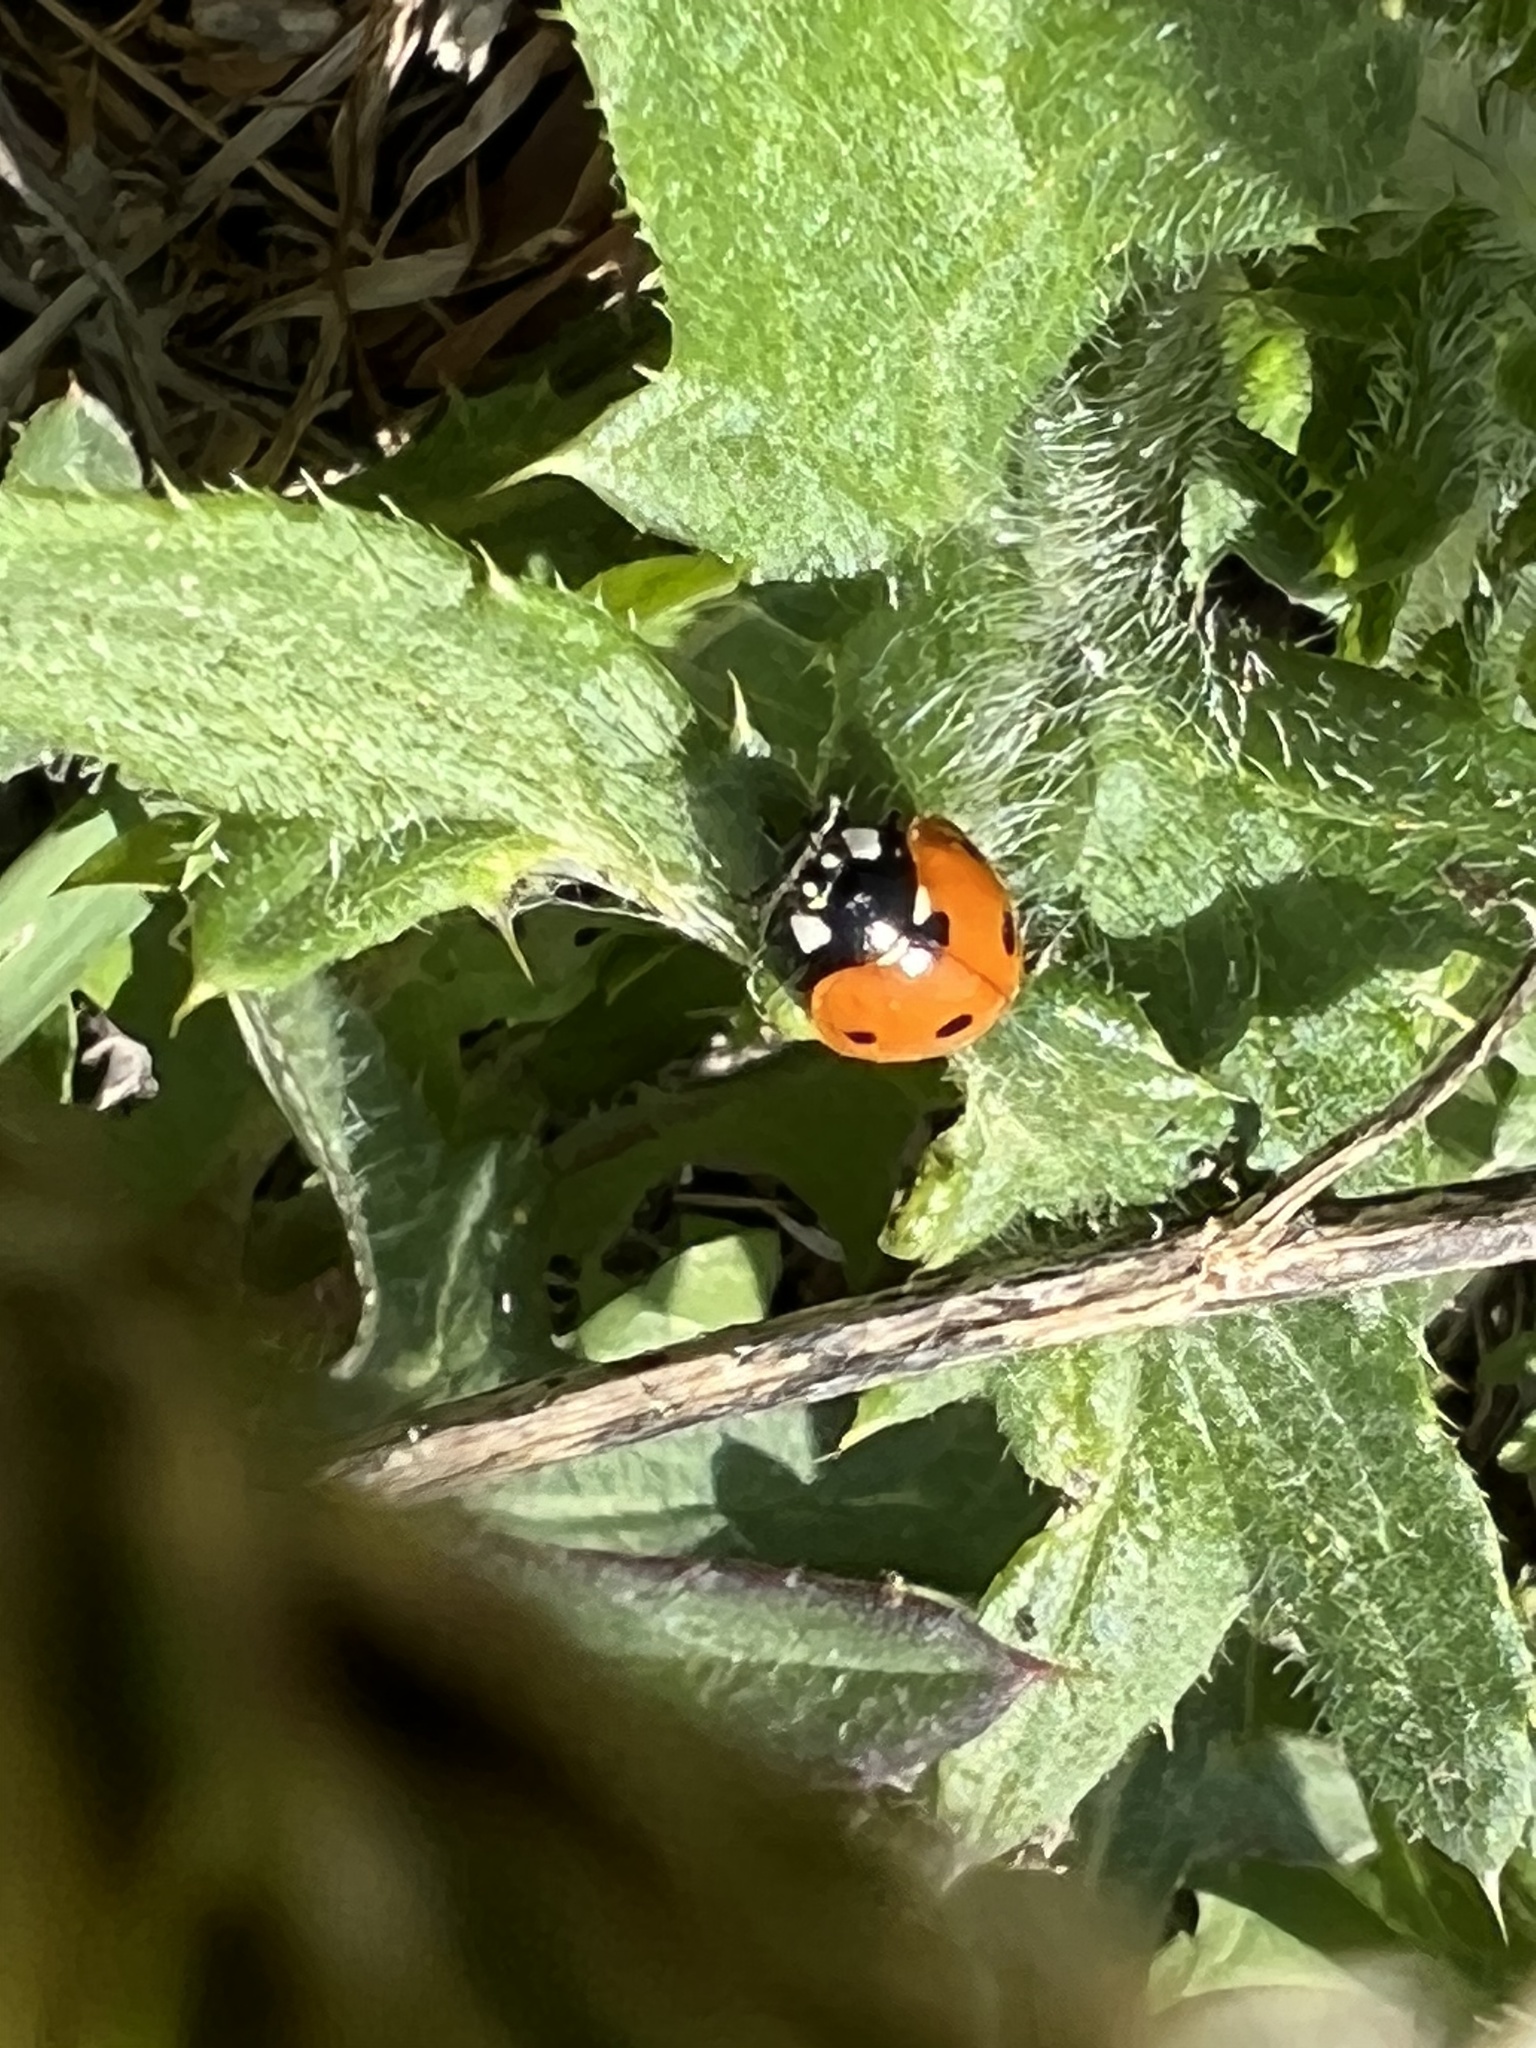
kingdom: Animalia
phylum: Arthropoda
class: Insecta
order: Coleoptera
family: Coccinellidae
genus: Coccinella
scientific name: Coccinella septempunctata
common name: Sevenspotted lady beetle
